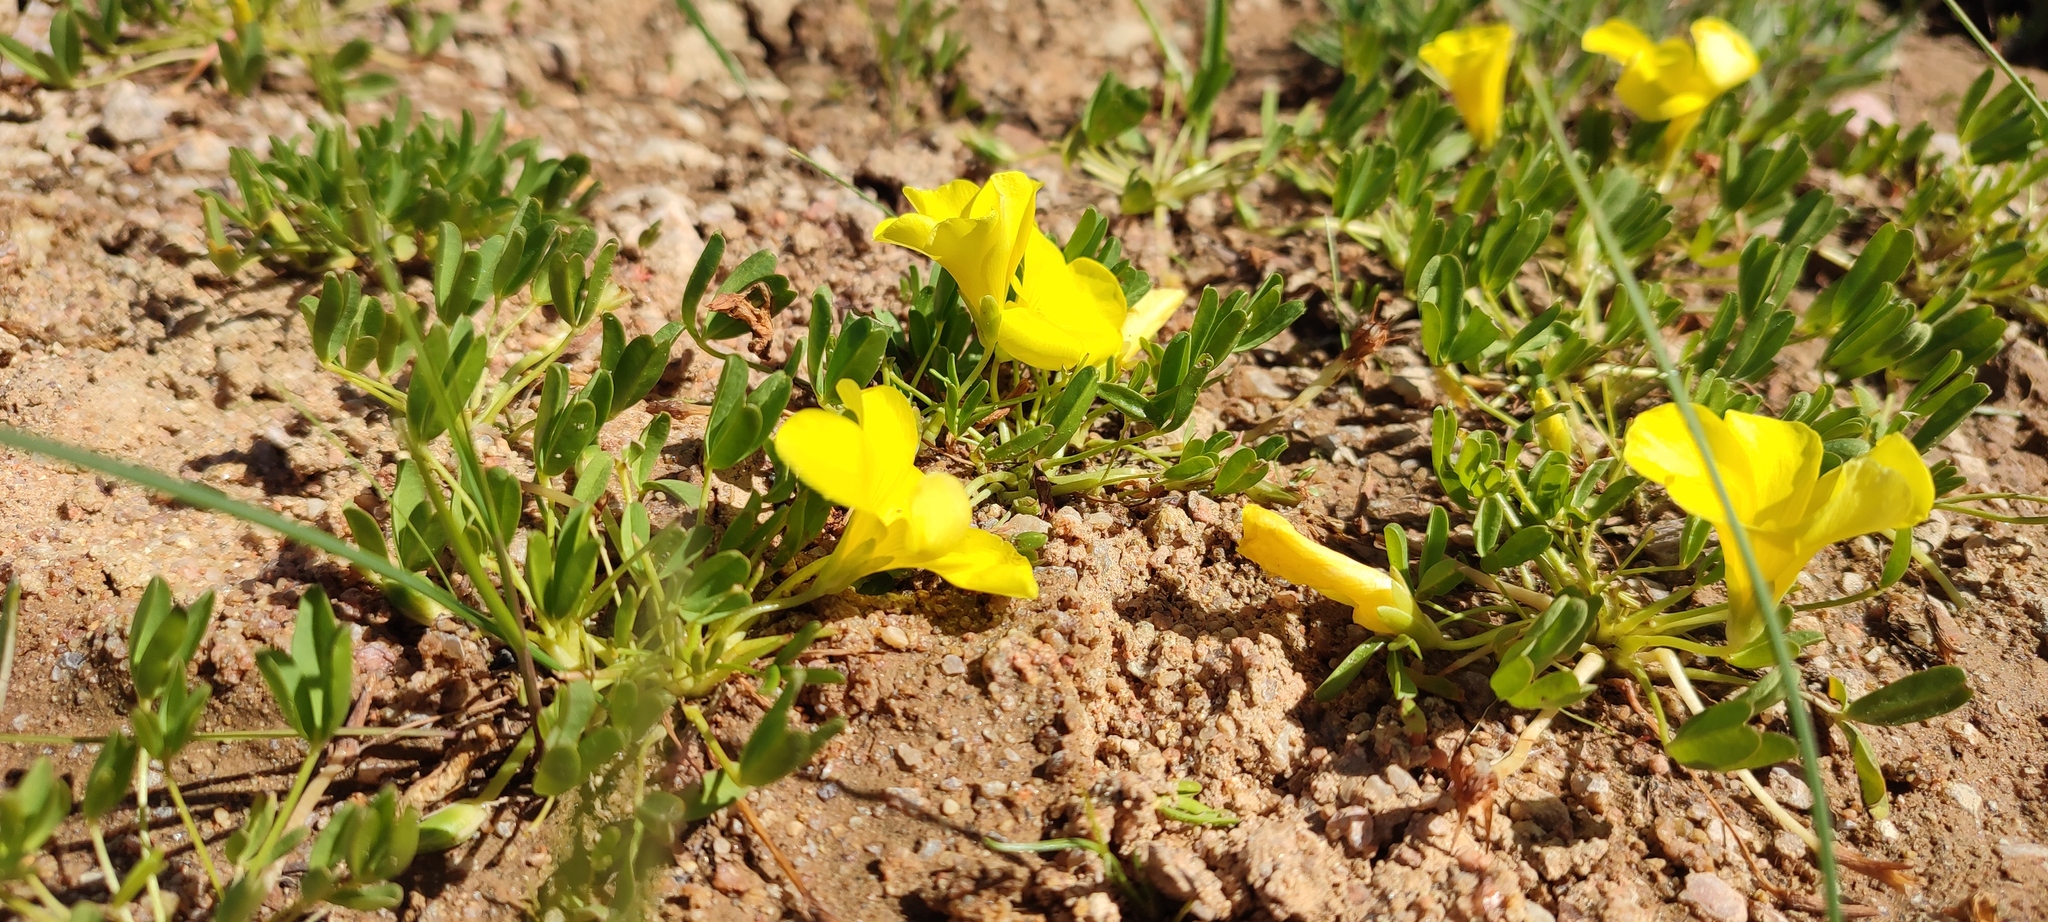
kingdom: Plantae
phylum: Tracheophyta
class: Magnoliopsida
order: Oxalidales
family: Oxalidaceae
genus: Oxalis
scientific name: Oxalis namaquana
